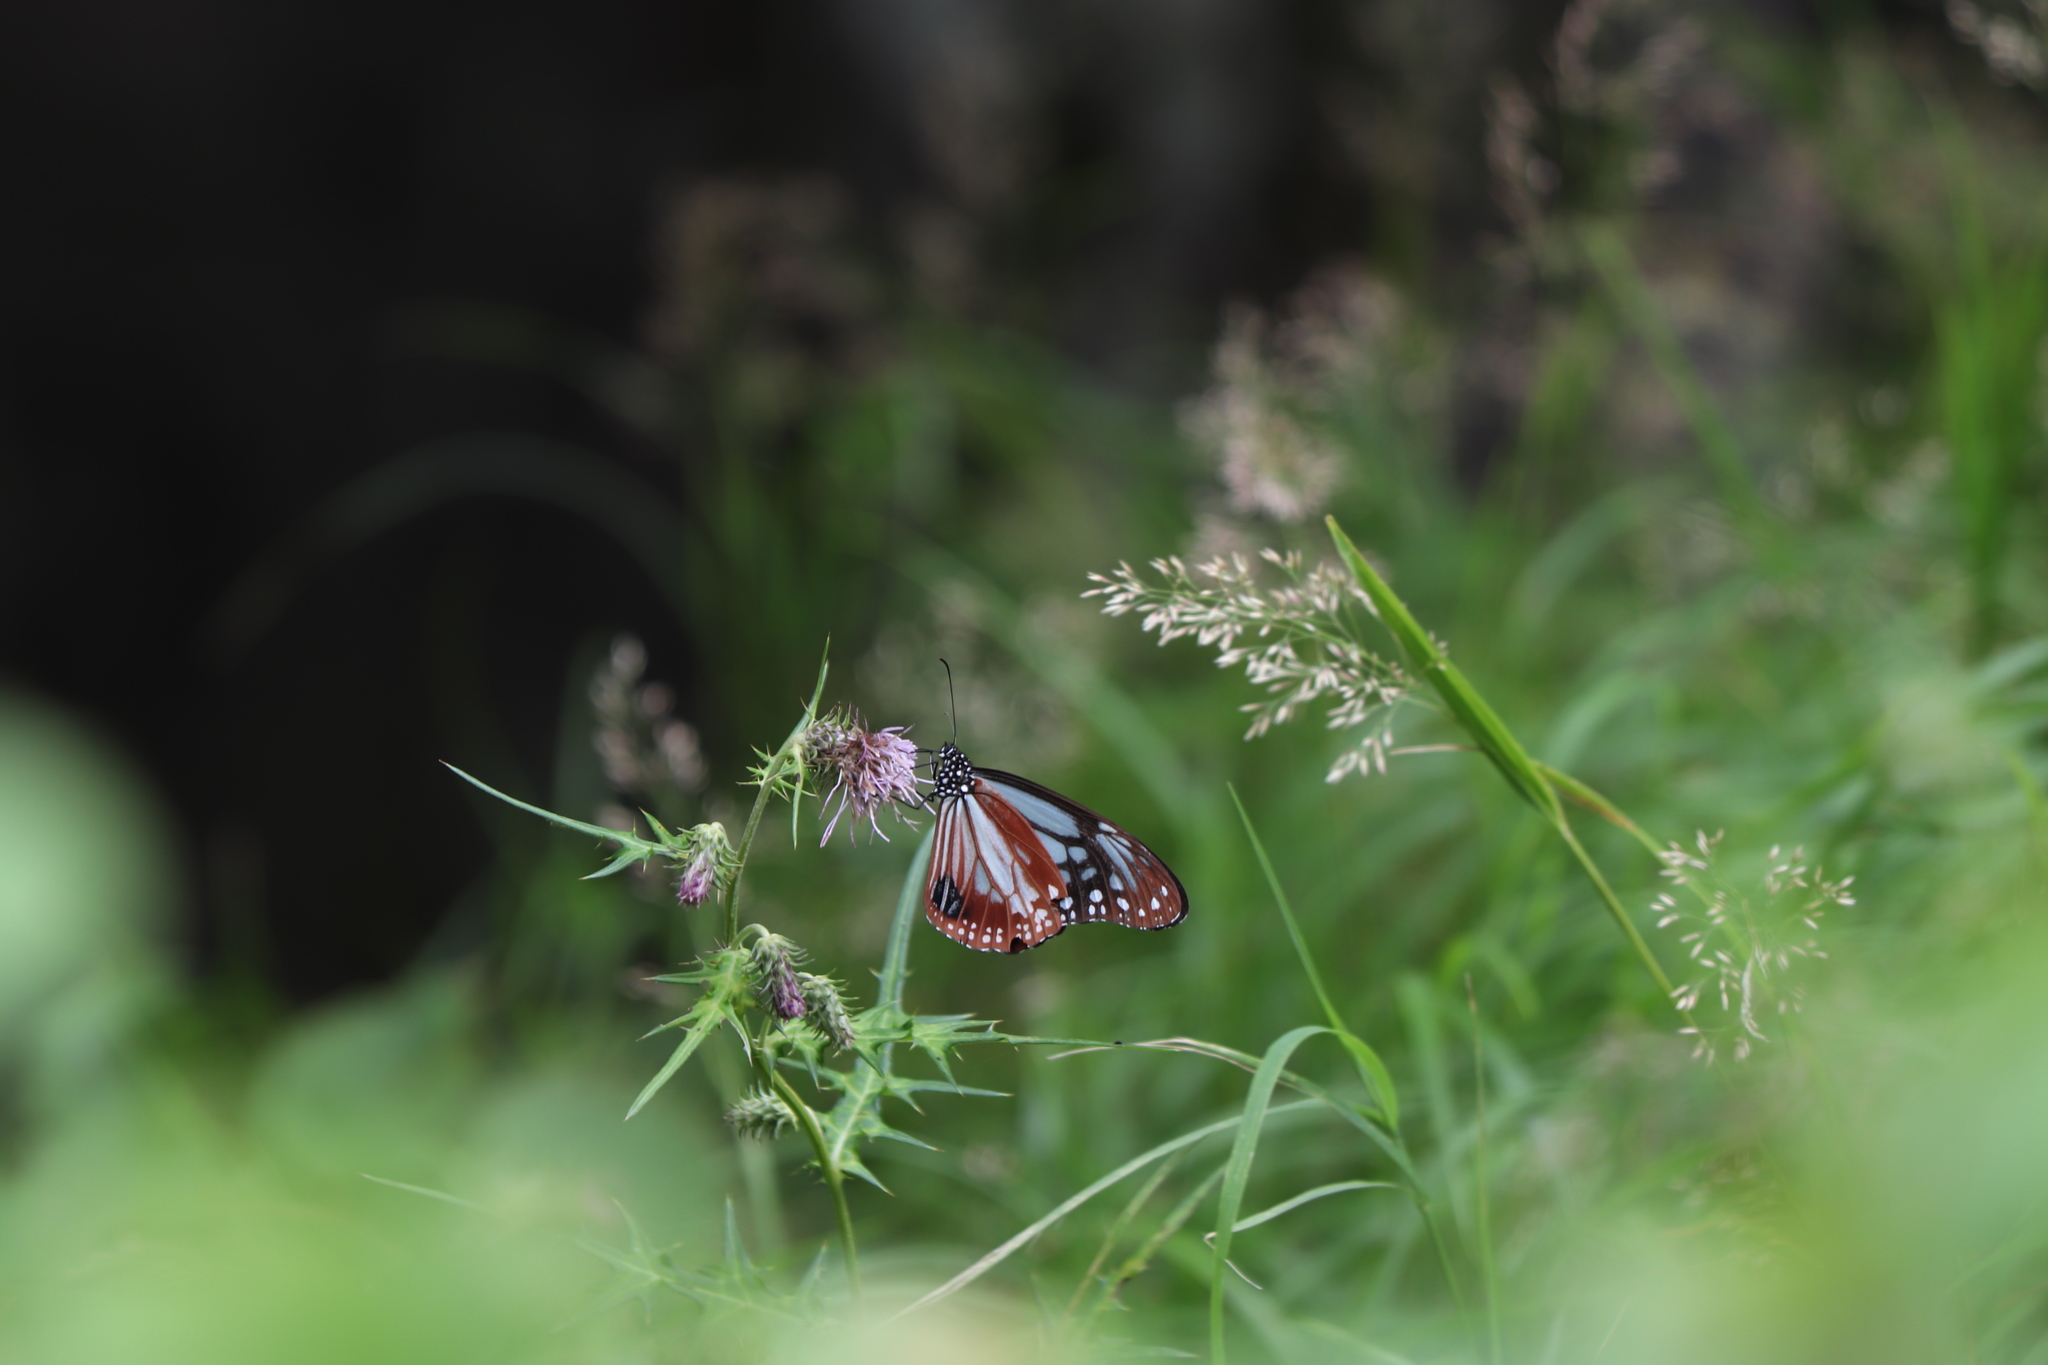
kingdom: Animalia
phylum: Arthropoda
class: Insecta
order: Lepidoptera
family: Nymphalidae
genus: Parantica
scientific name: Parantica sita
